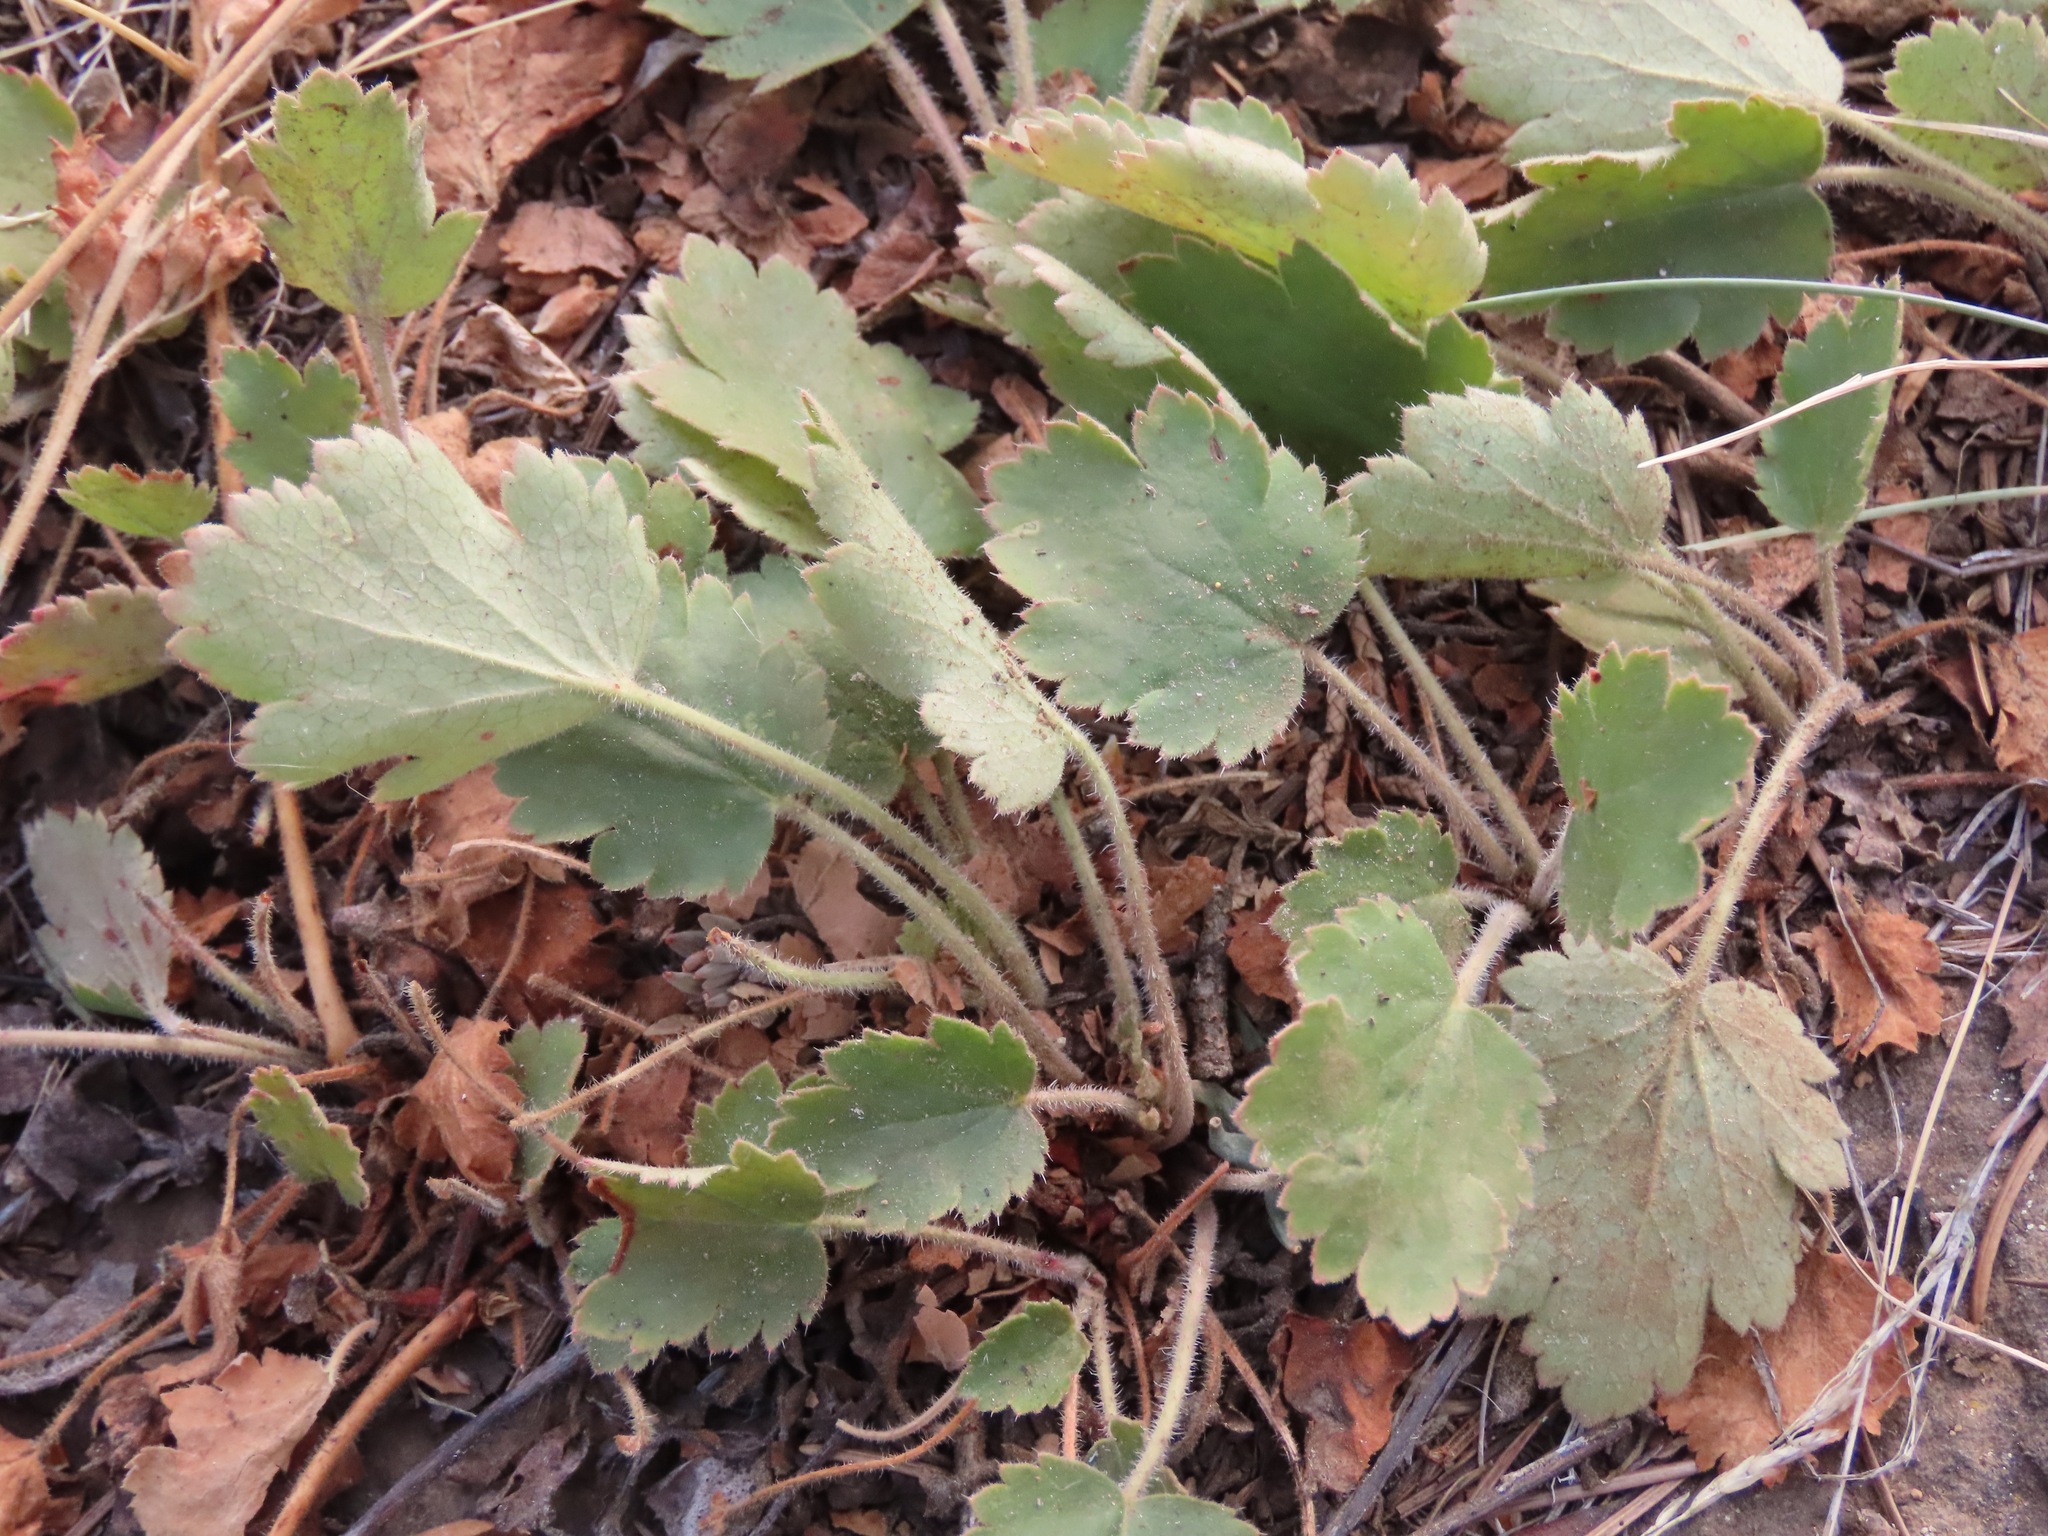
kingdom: Plantae
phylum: Tracheophyta
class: Magnoliopsida
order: Saxifragales
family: Saxifragaceae
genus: Heuchera
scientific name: Heuchera cylindrica
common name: Mat alumroot
